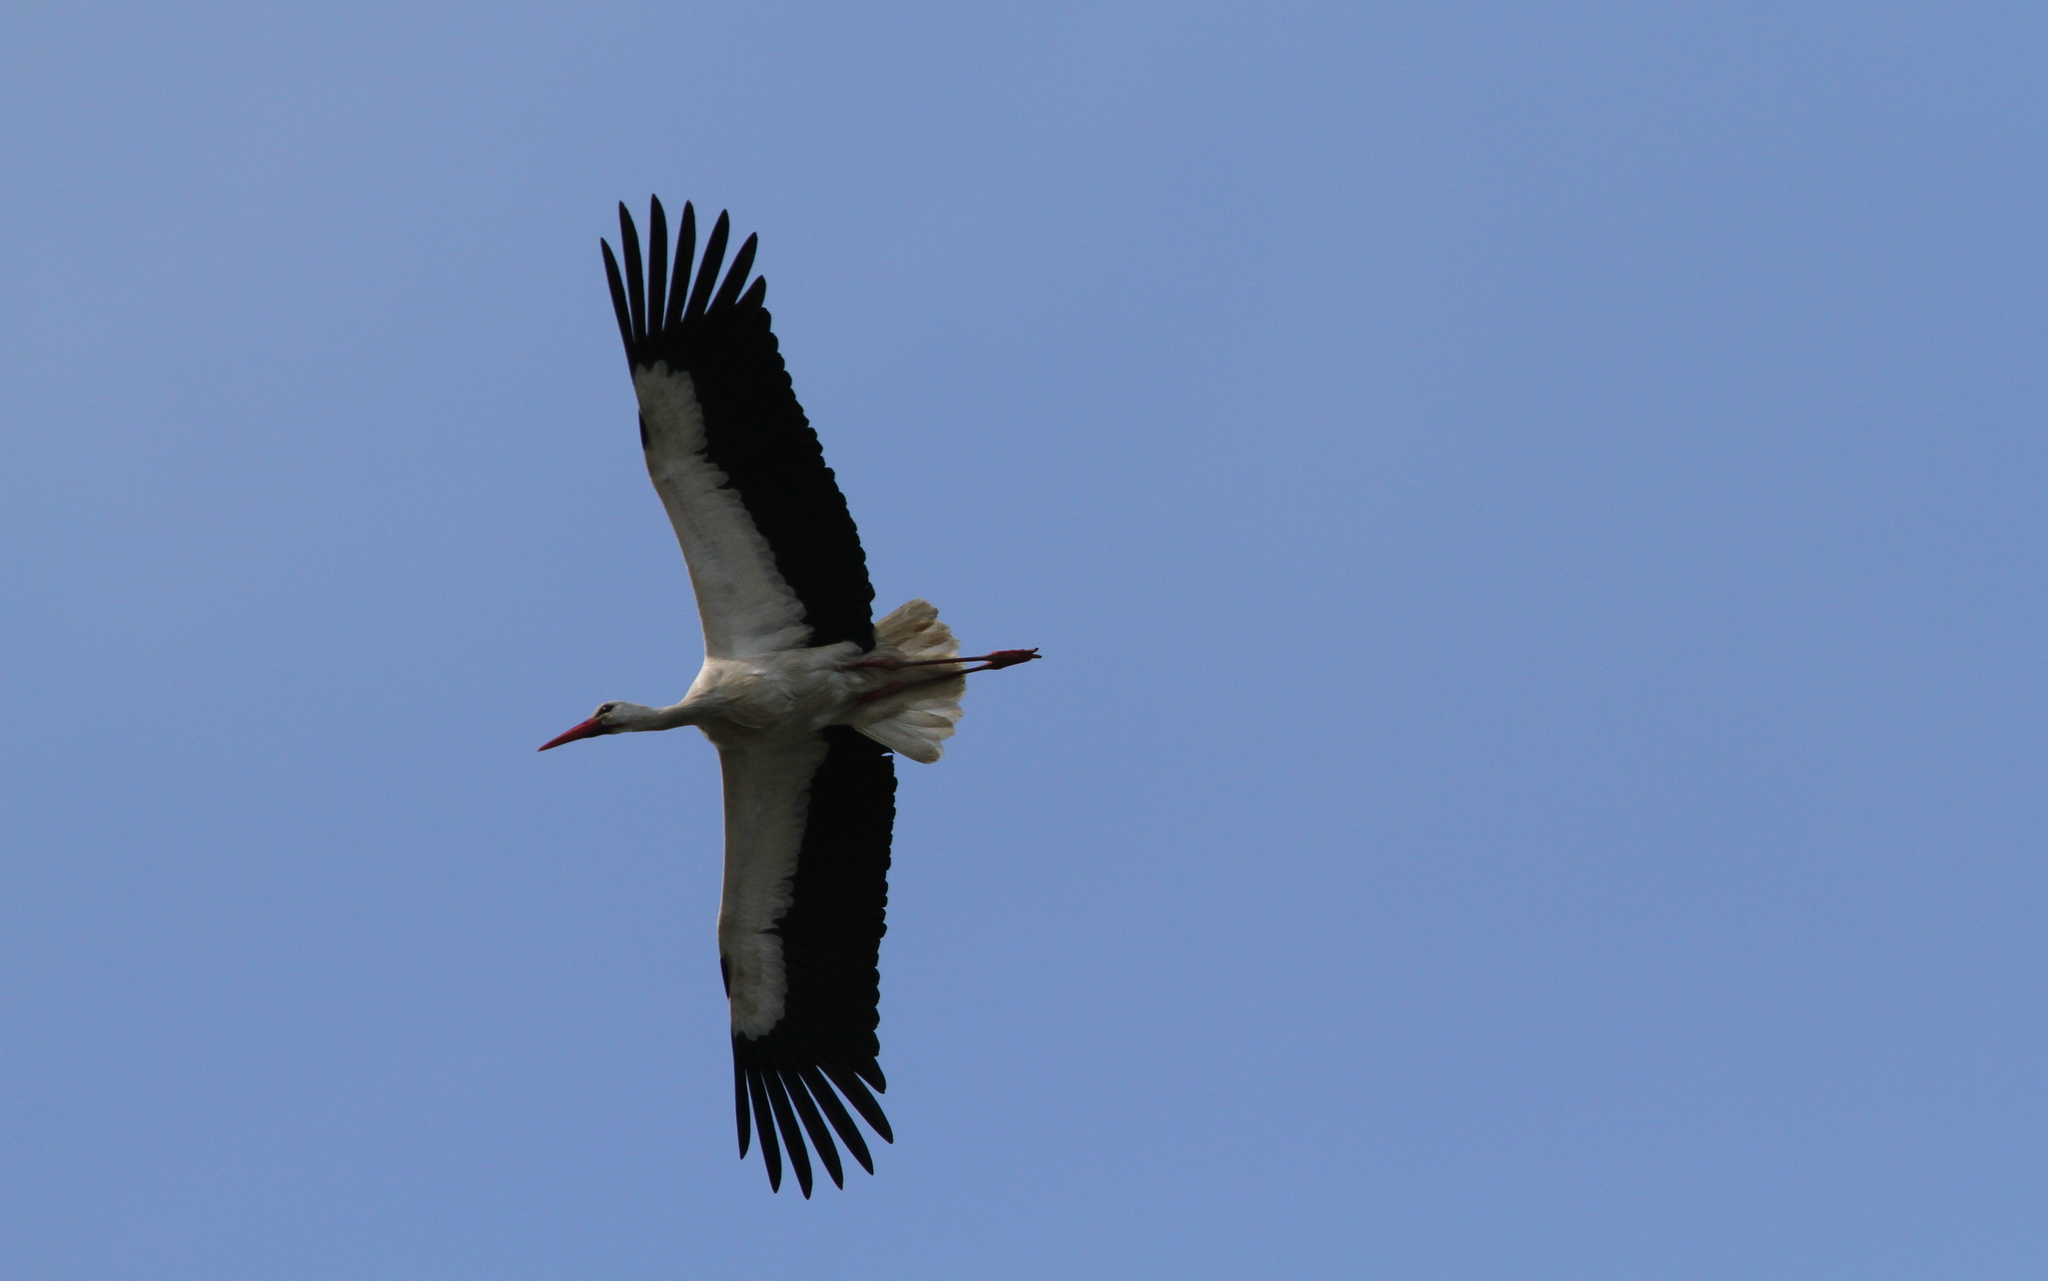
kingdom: Animalia
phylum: Chordata
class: Aves
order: Ciconiiformes
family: Ciconiidae
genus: Ciconia
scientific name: Ciconia ciconia
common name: White stork
